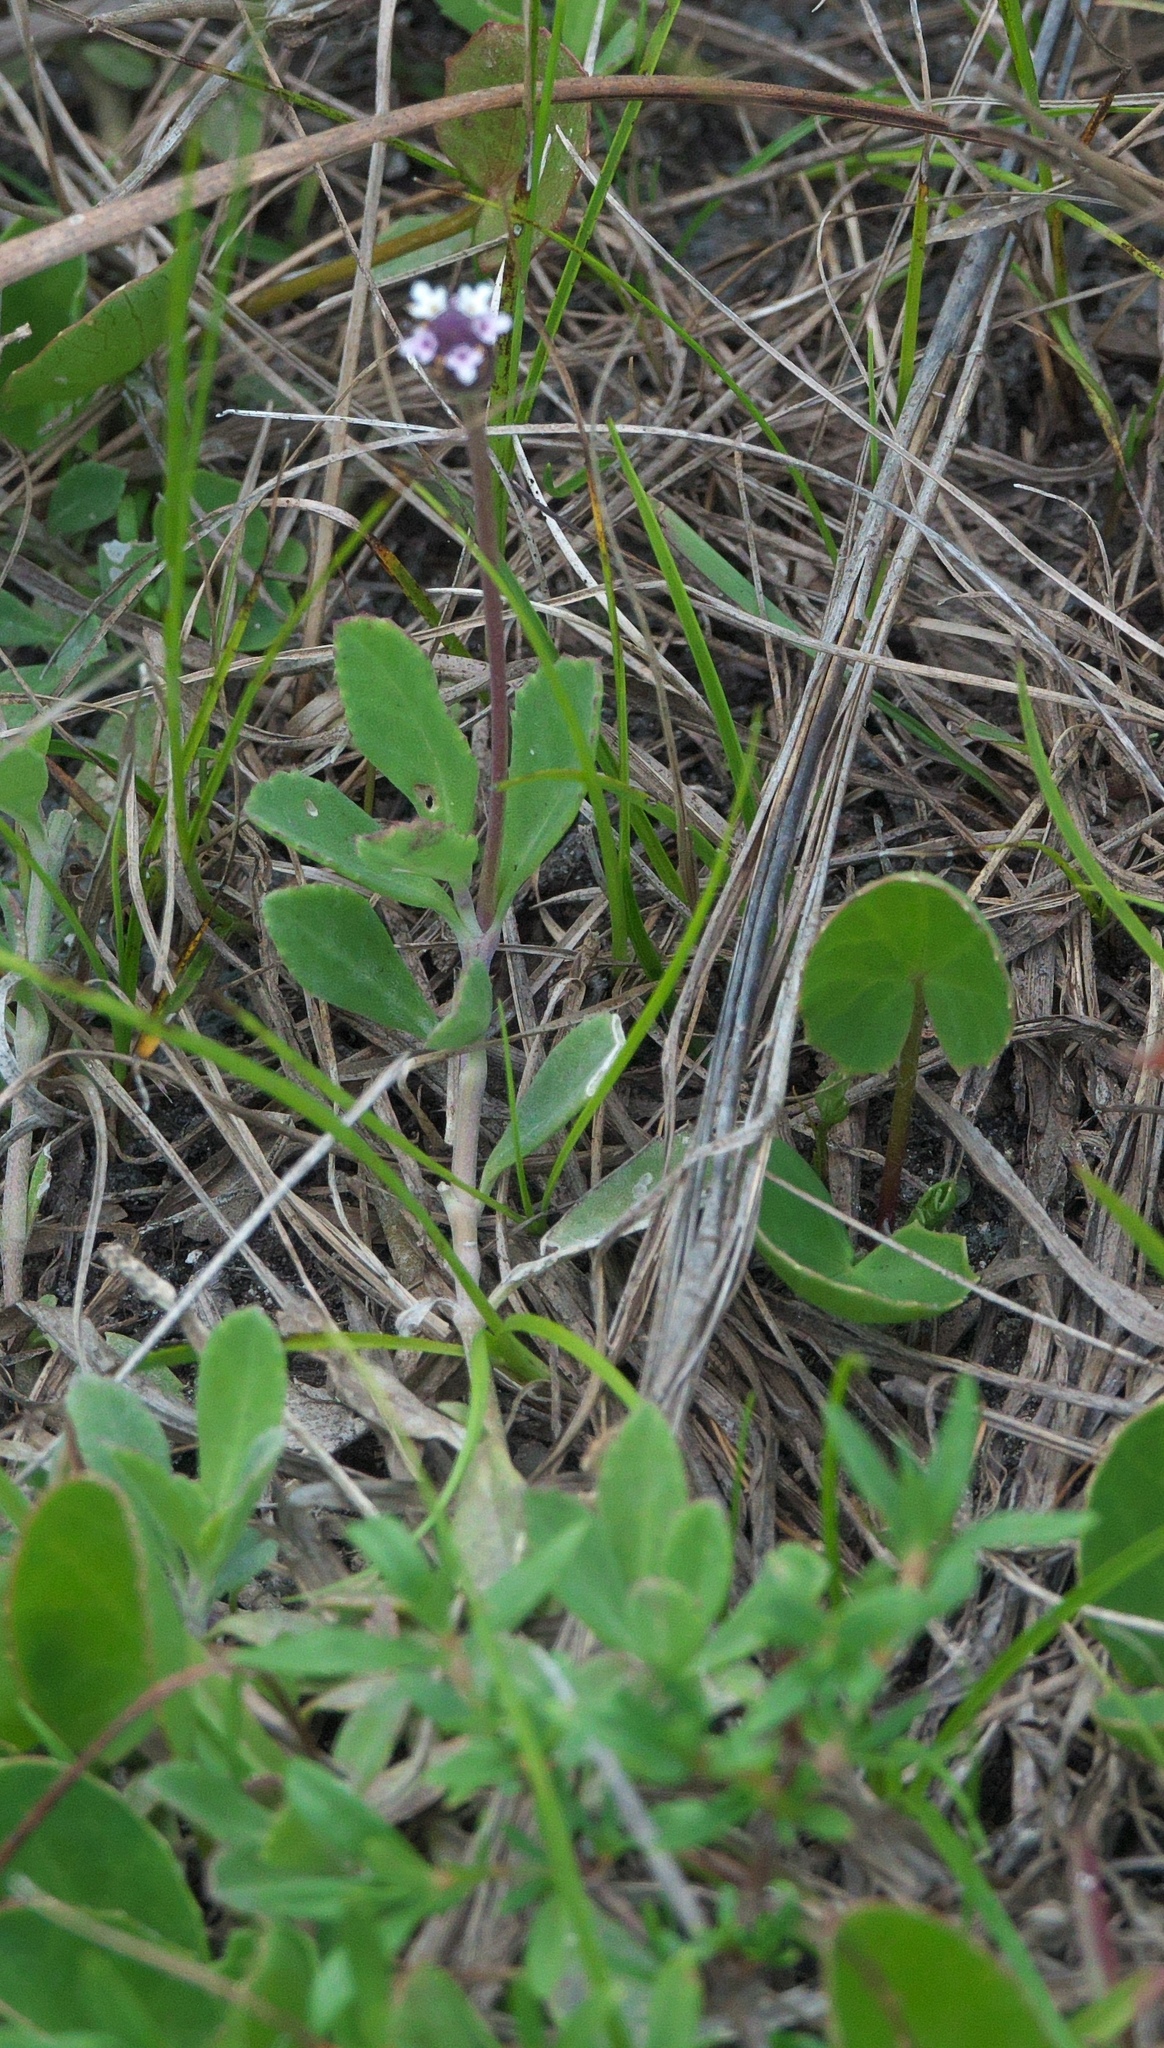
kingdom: Plantae
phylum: Tracheophyta
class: Magnoliopsida
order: Lamiales
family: Verbenaceae
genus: Phyla
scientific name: Phyla nodiflora
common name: Frogfruit
